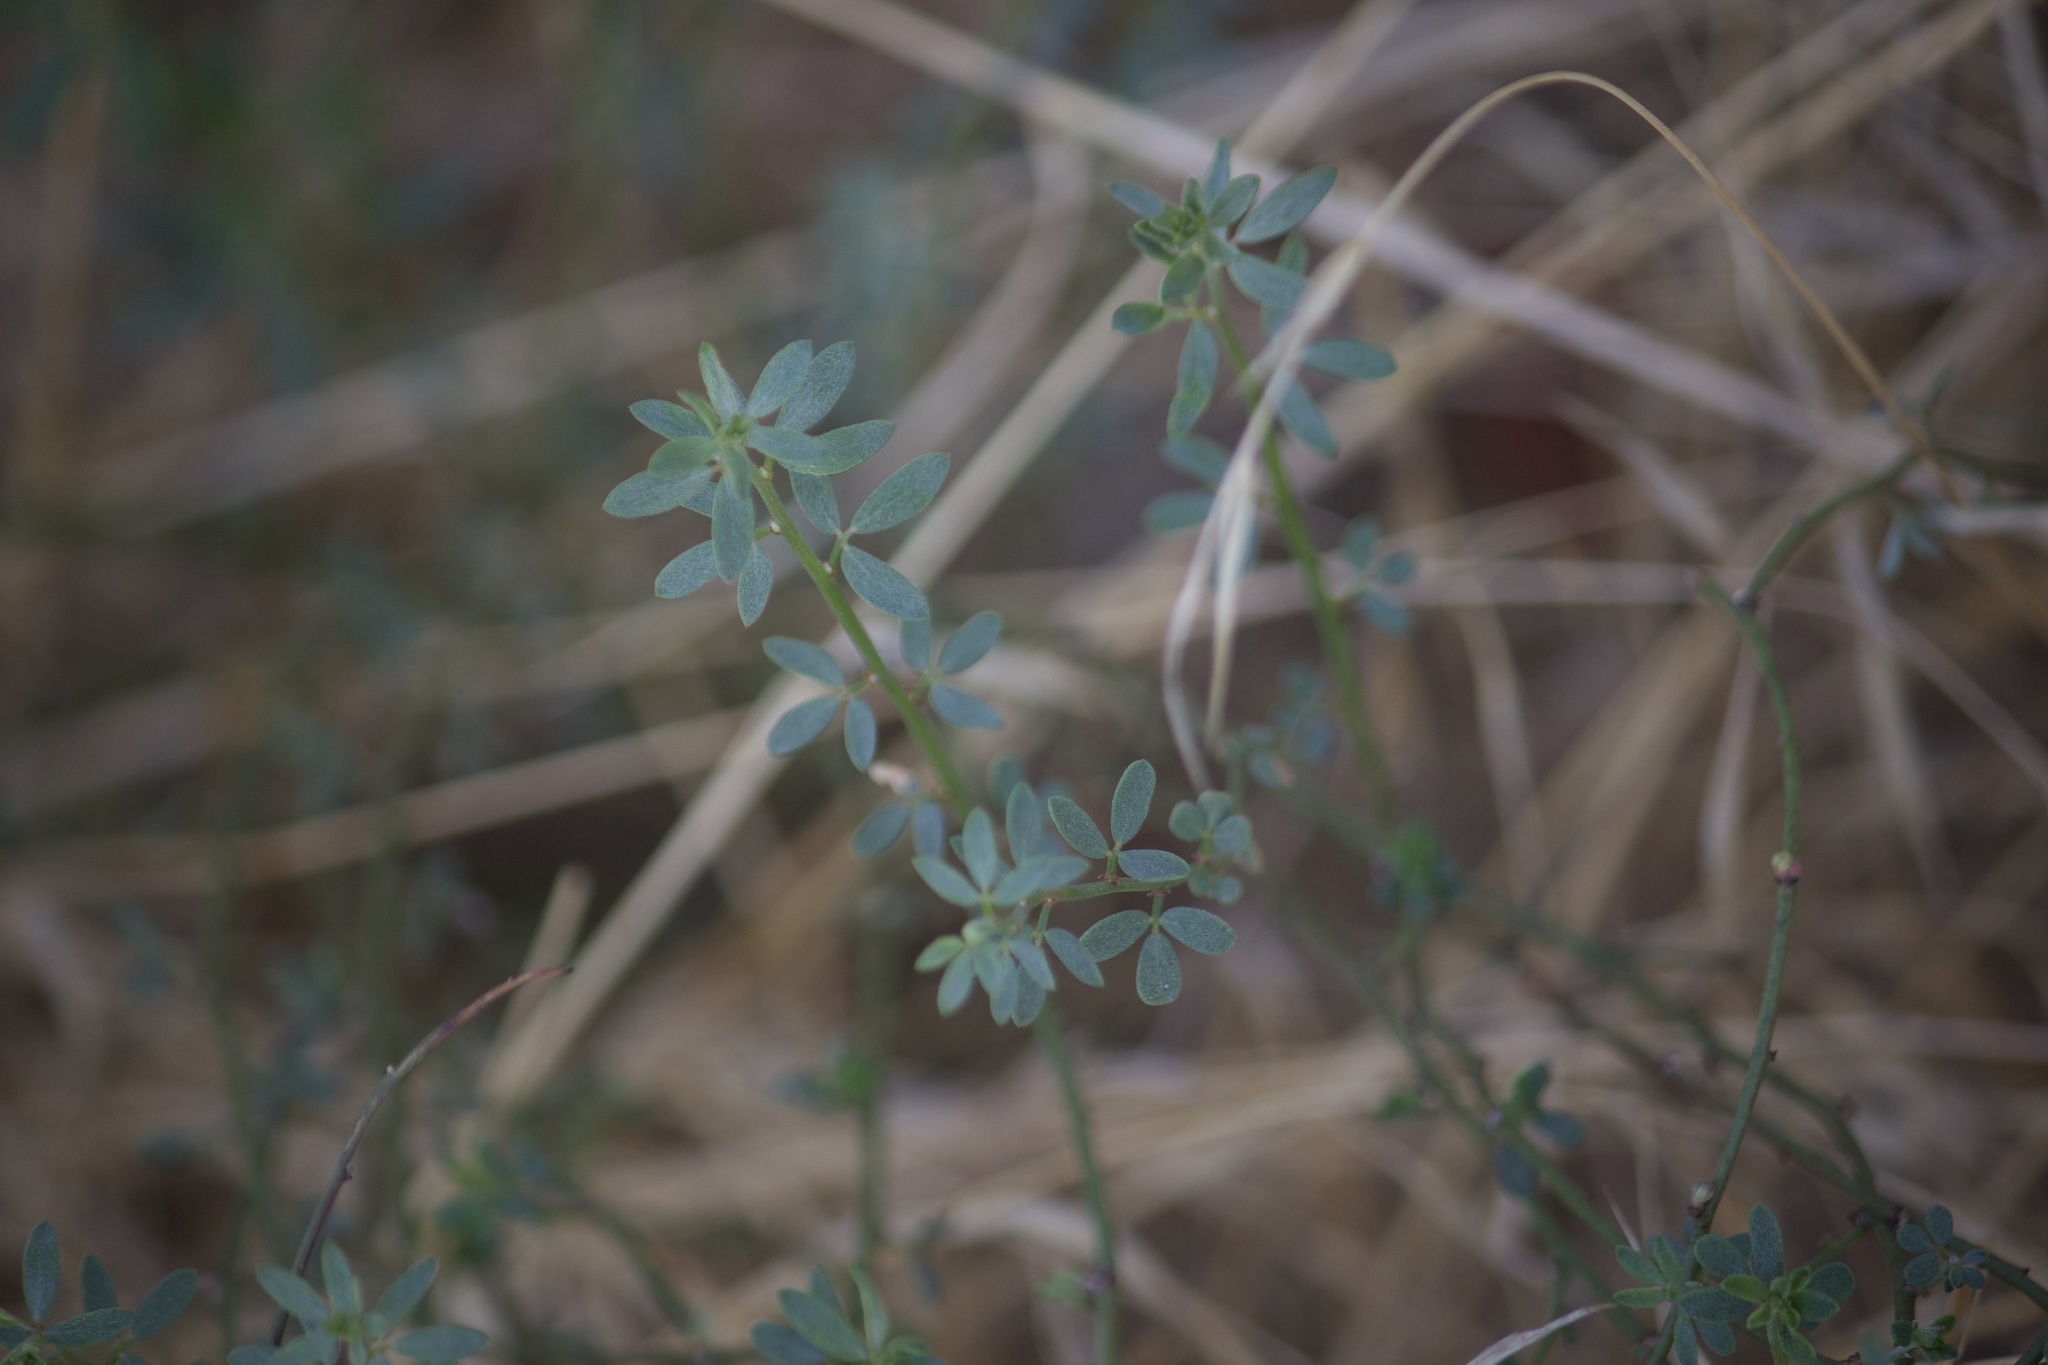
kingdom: Plantae
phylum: Tracheophyta
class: Magnoliopsida
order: Fabales
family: Fabaceae
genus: Acmispon
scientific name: Acmispon glaber
